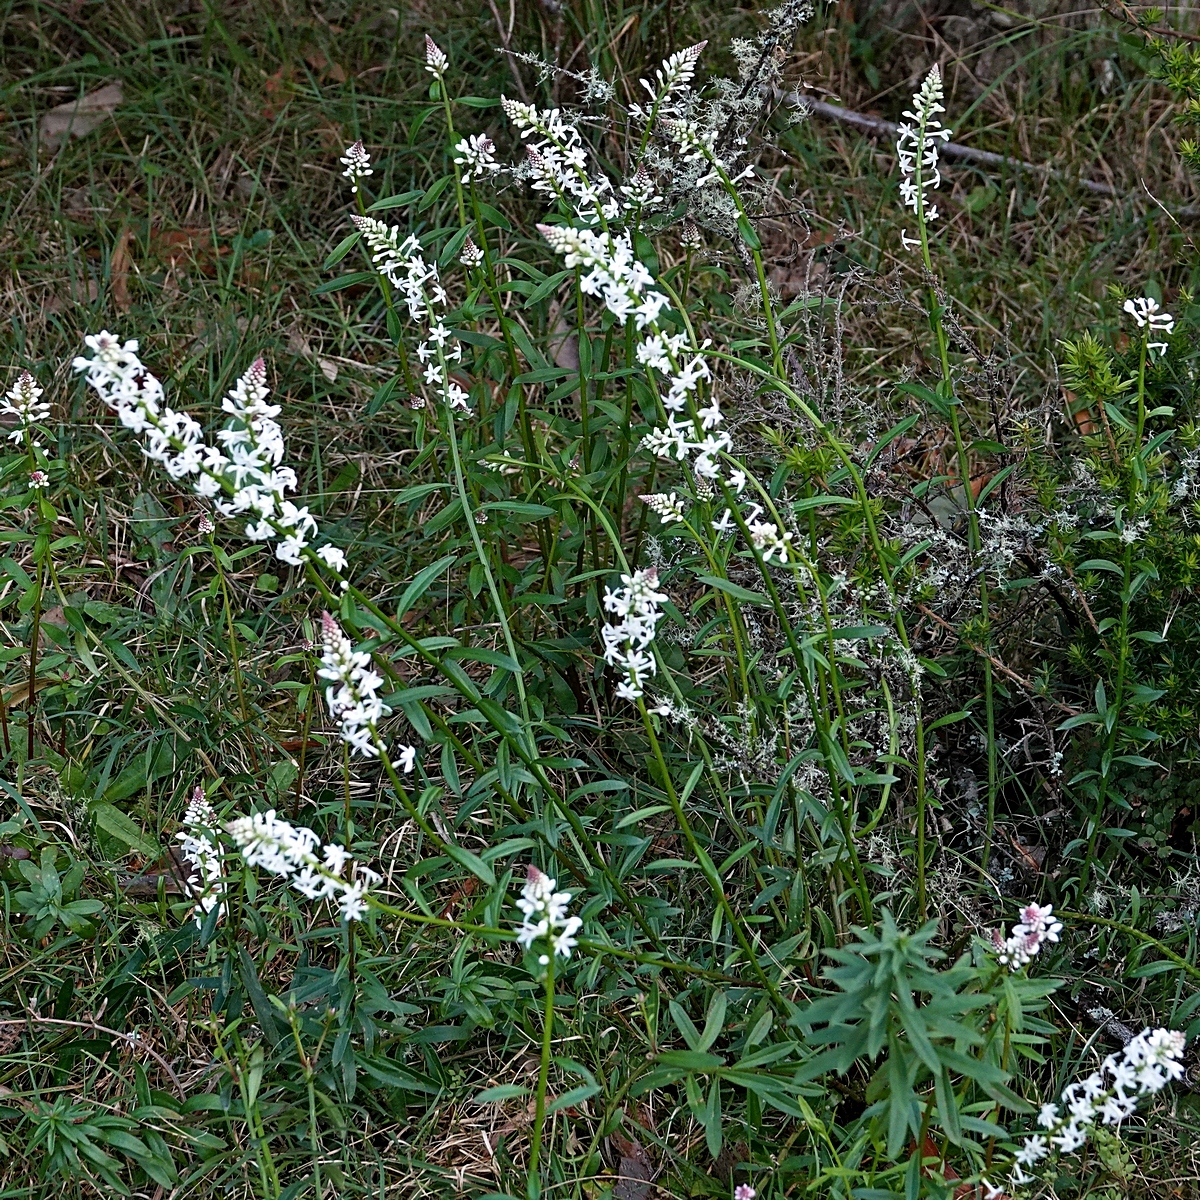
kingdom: Plantae
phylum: Tracheophyta
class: Magnoliopsida
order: Celastrales
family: Celastraceae
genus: Stackhousia
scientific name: Stackhousia monogyna
